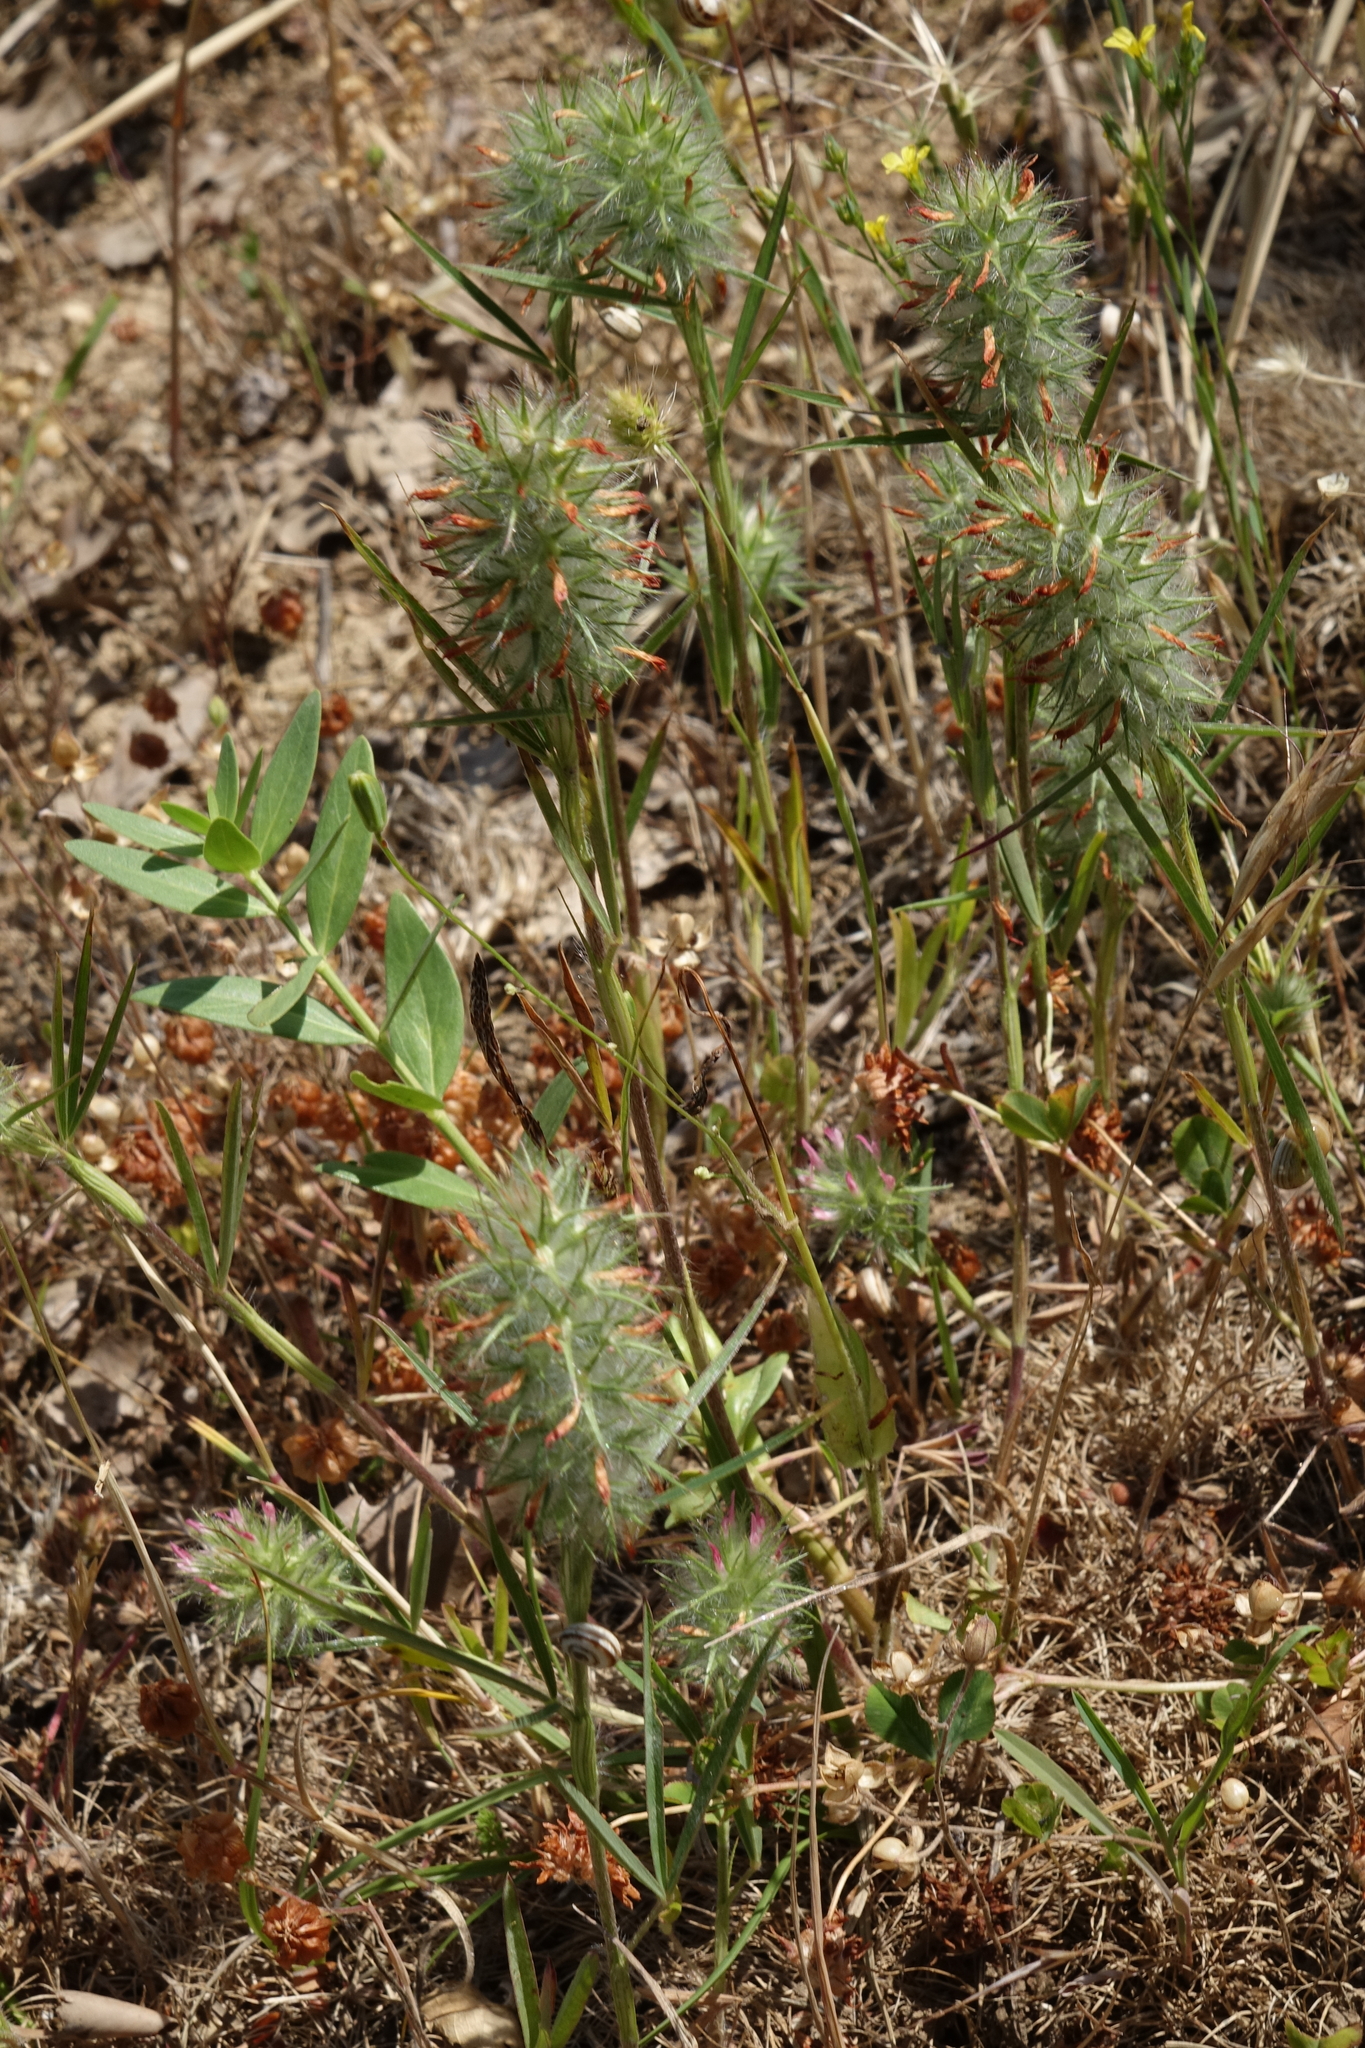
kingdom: Plantae
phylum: Tracheophyta
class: Magnoliopsida
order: Fabales
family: Fabaceae
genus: Trifolium
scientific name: Trifolium angustifolium
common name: Narrow clover
